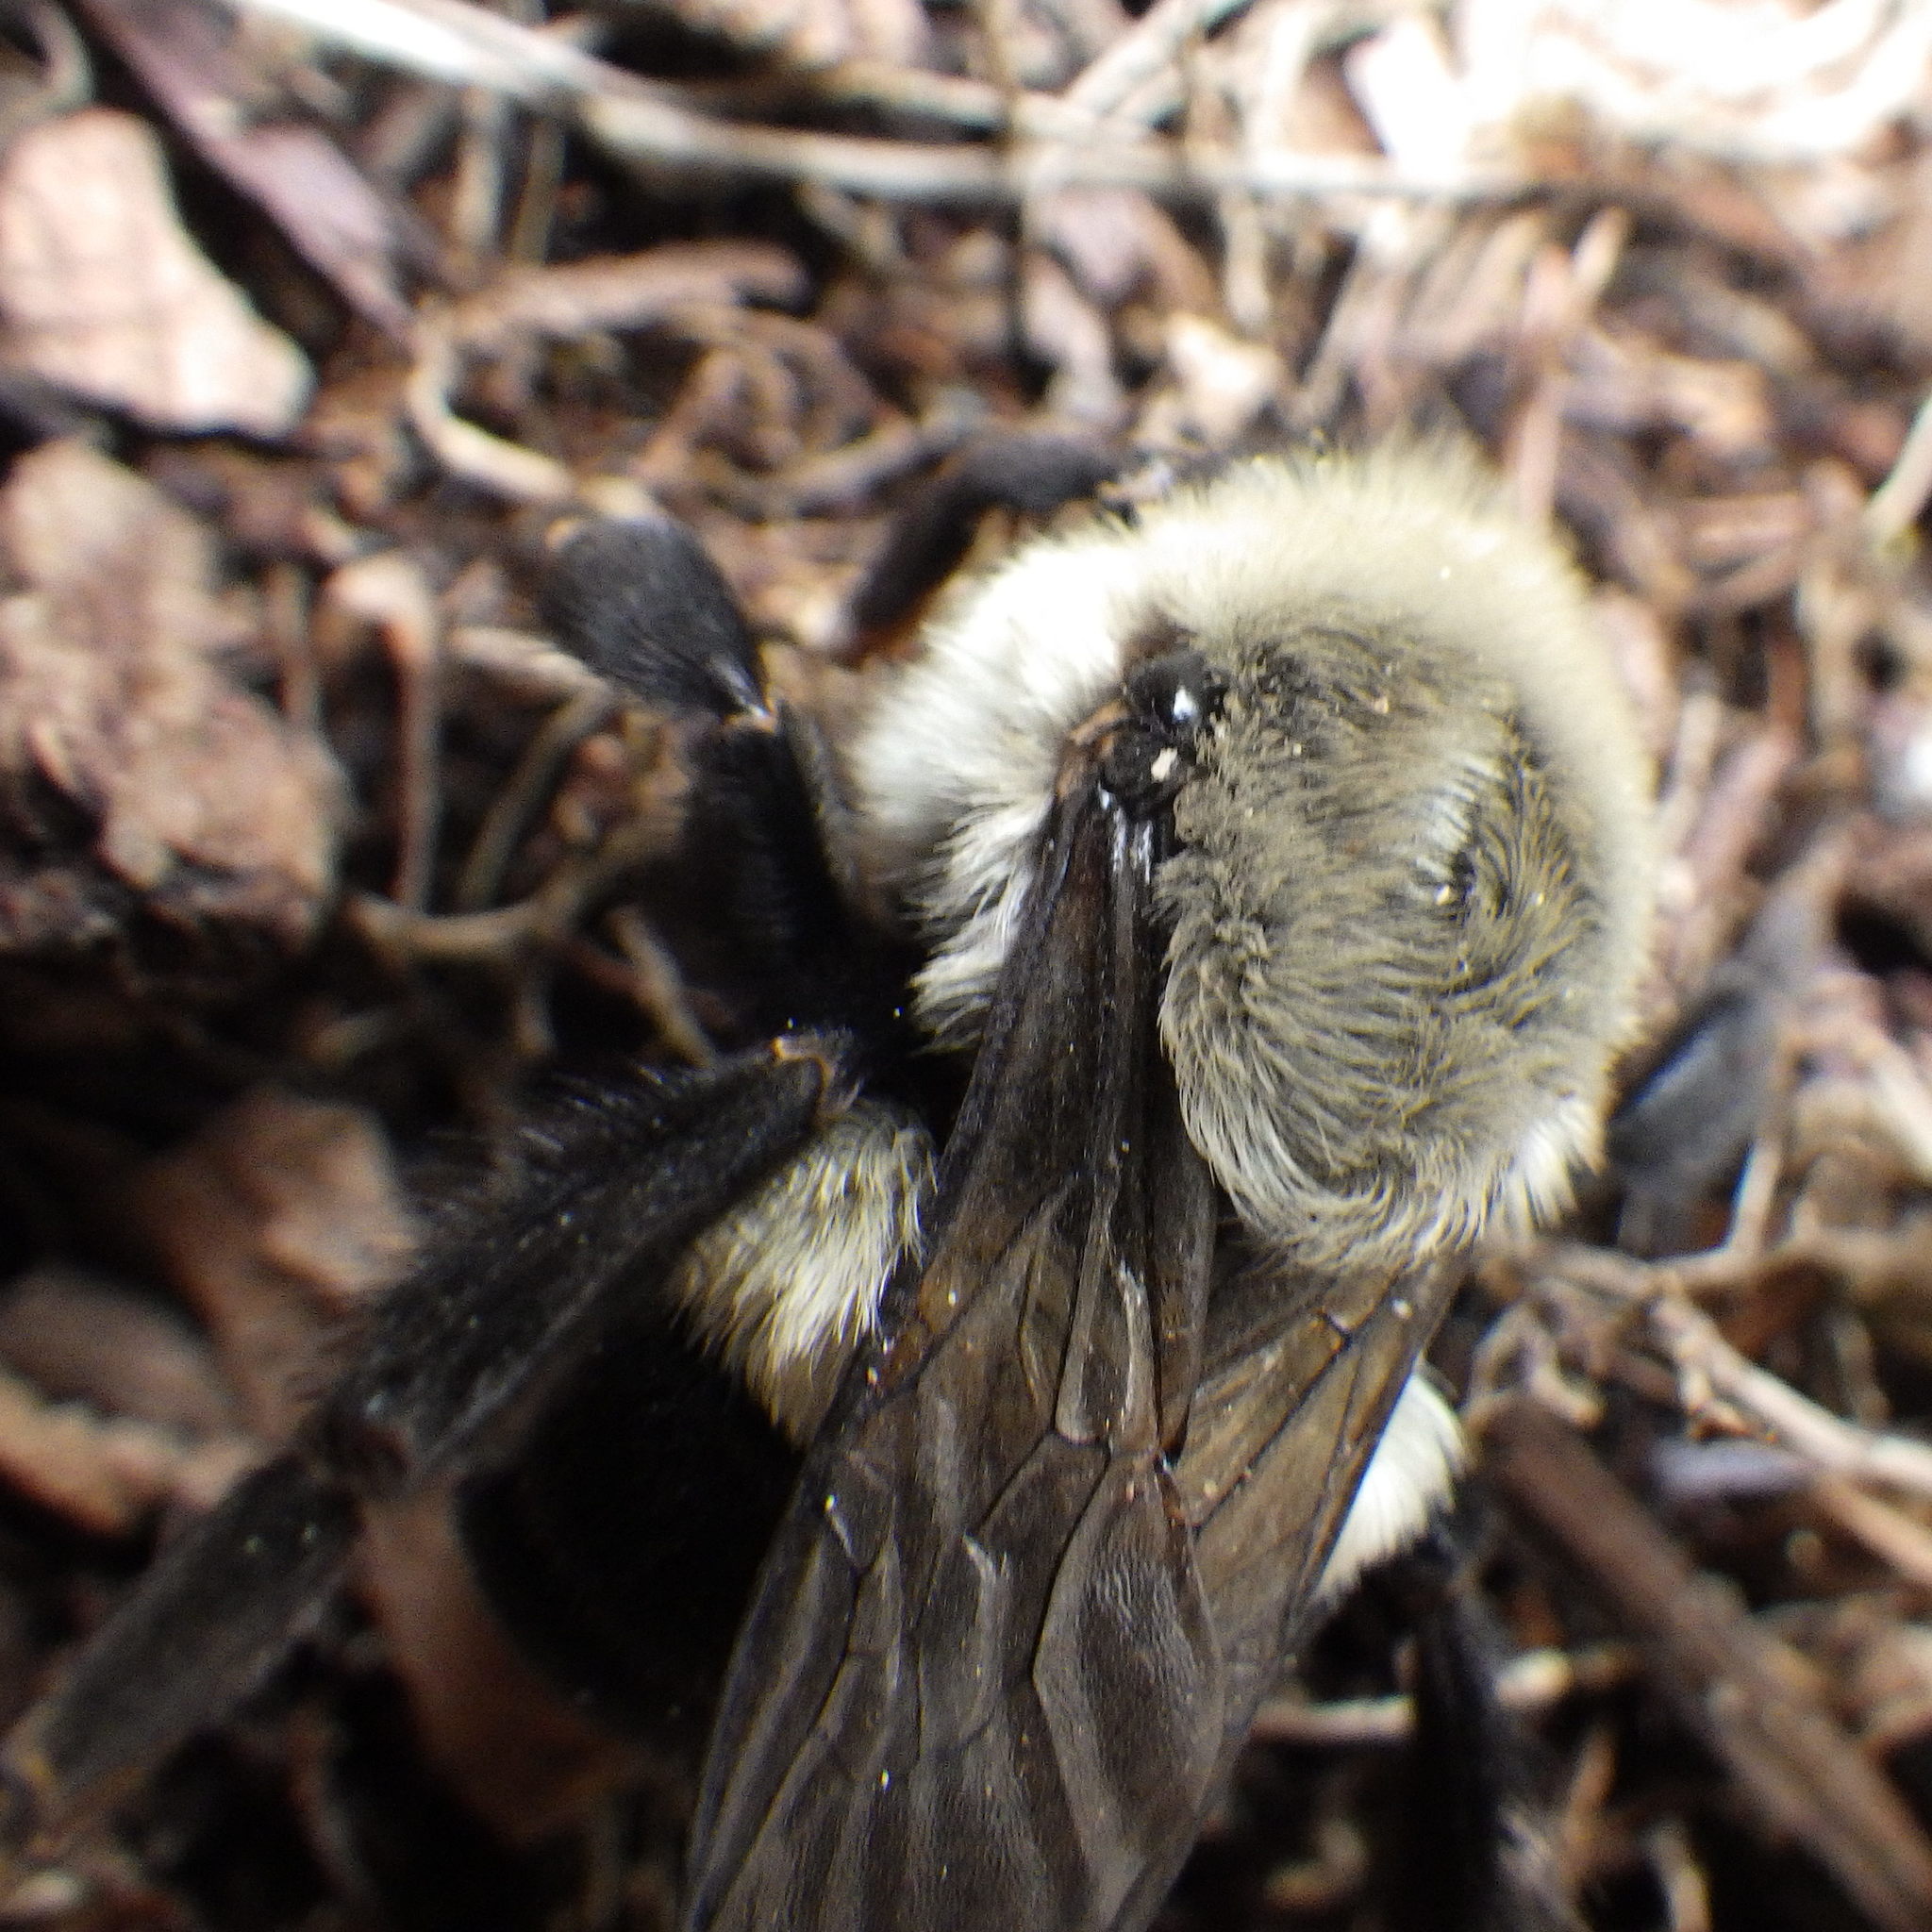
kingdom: Animalia
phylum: Arthropoda
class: Insecta
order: Hymenoptera
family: Apidae
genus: Bombus
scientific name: Bombus impatiens
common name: Common eastern bumble bee
